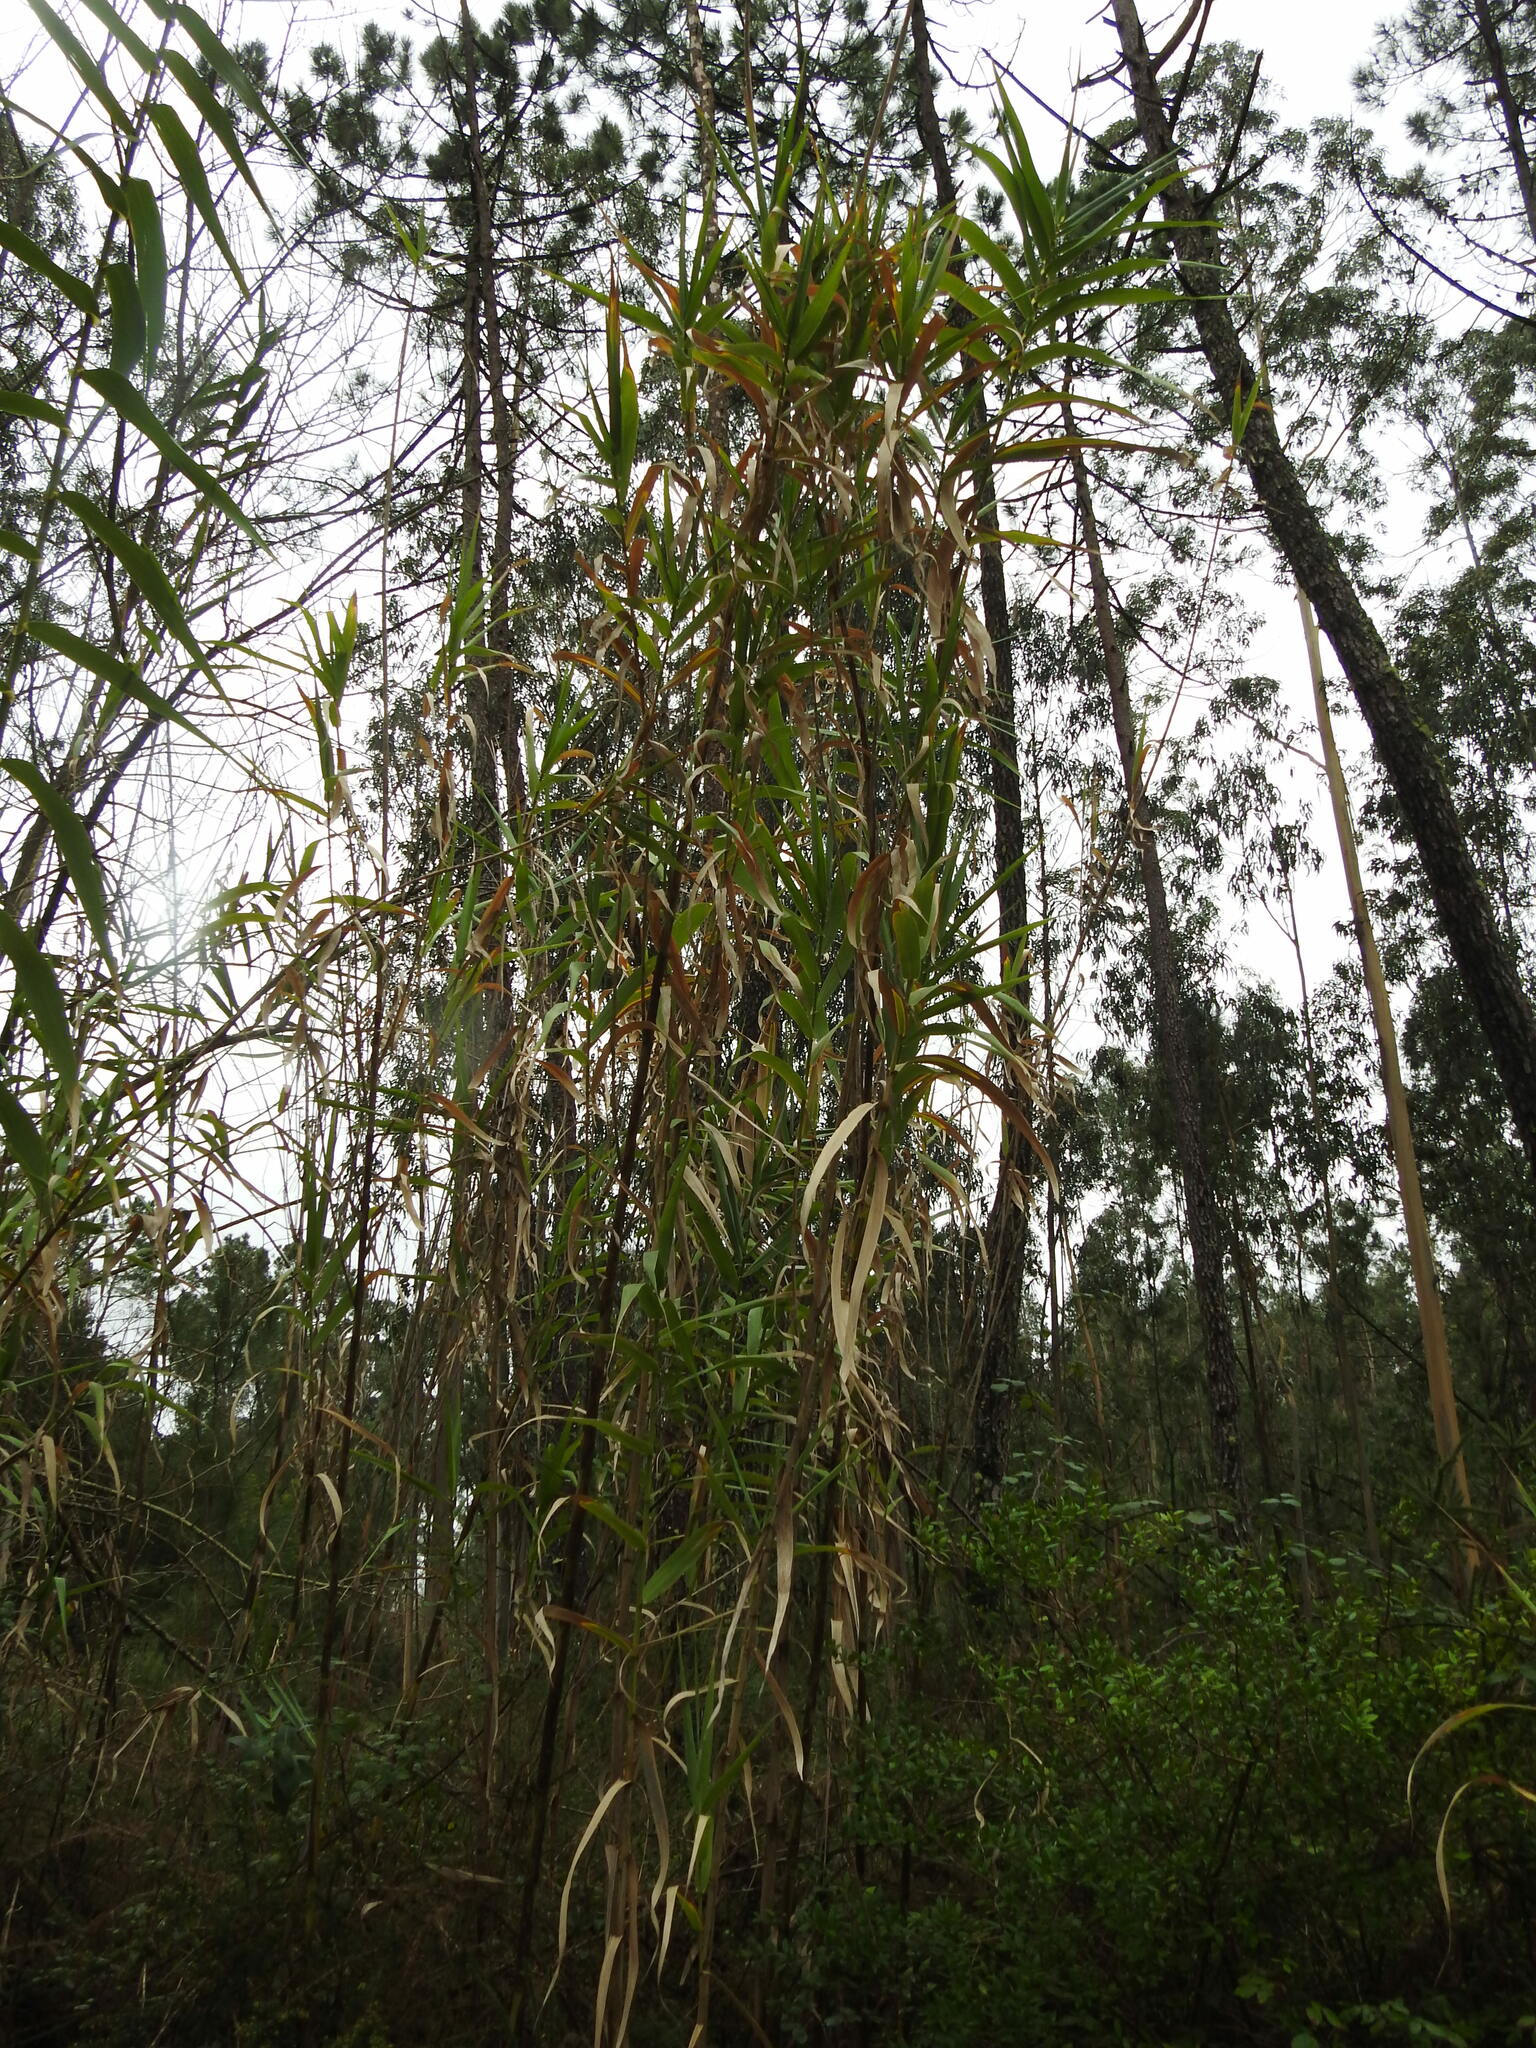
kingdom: Plantae
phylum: Tracheophyta
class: Liliopsida
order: Poales
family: Poaceae
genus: Arundo
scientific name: Arundo donax
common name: Giant reed
